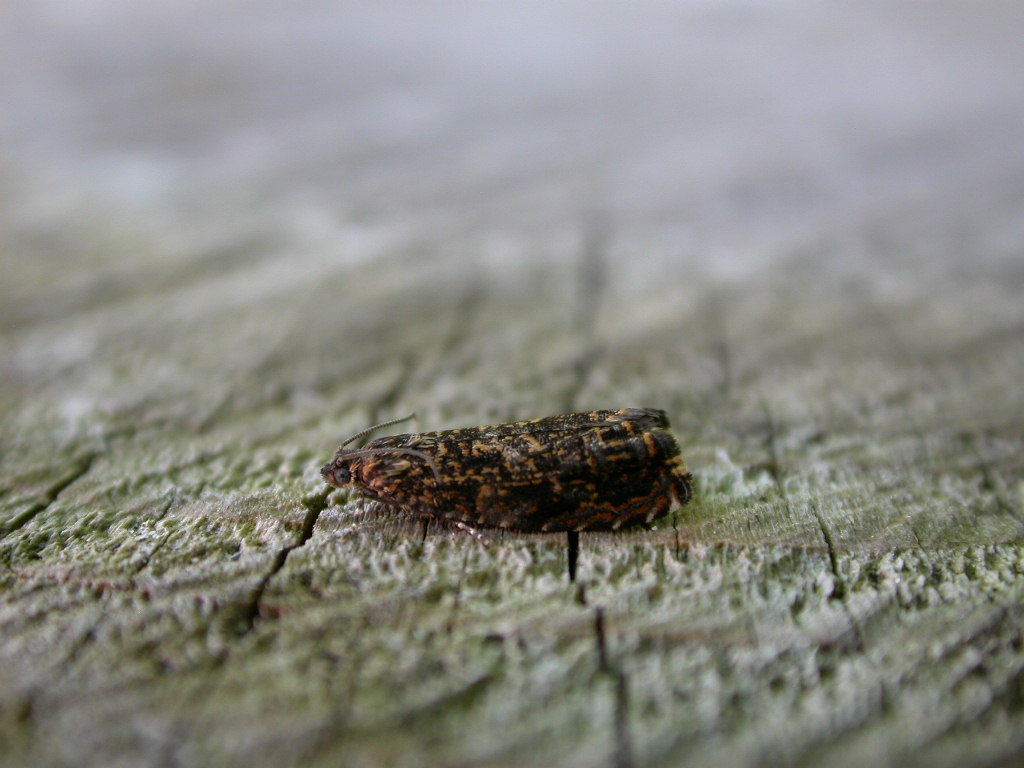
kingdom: Animalia
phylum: Arthropoda
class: Insecta
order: Lepidoptera
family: Tortricidae
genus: Enarmonia
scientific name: Enarmonia formosana
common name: Cherry bark tortrix
